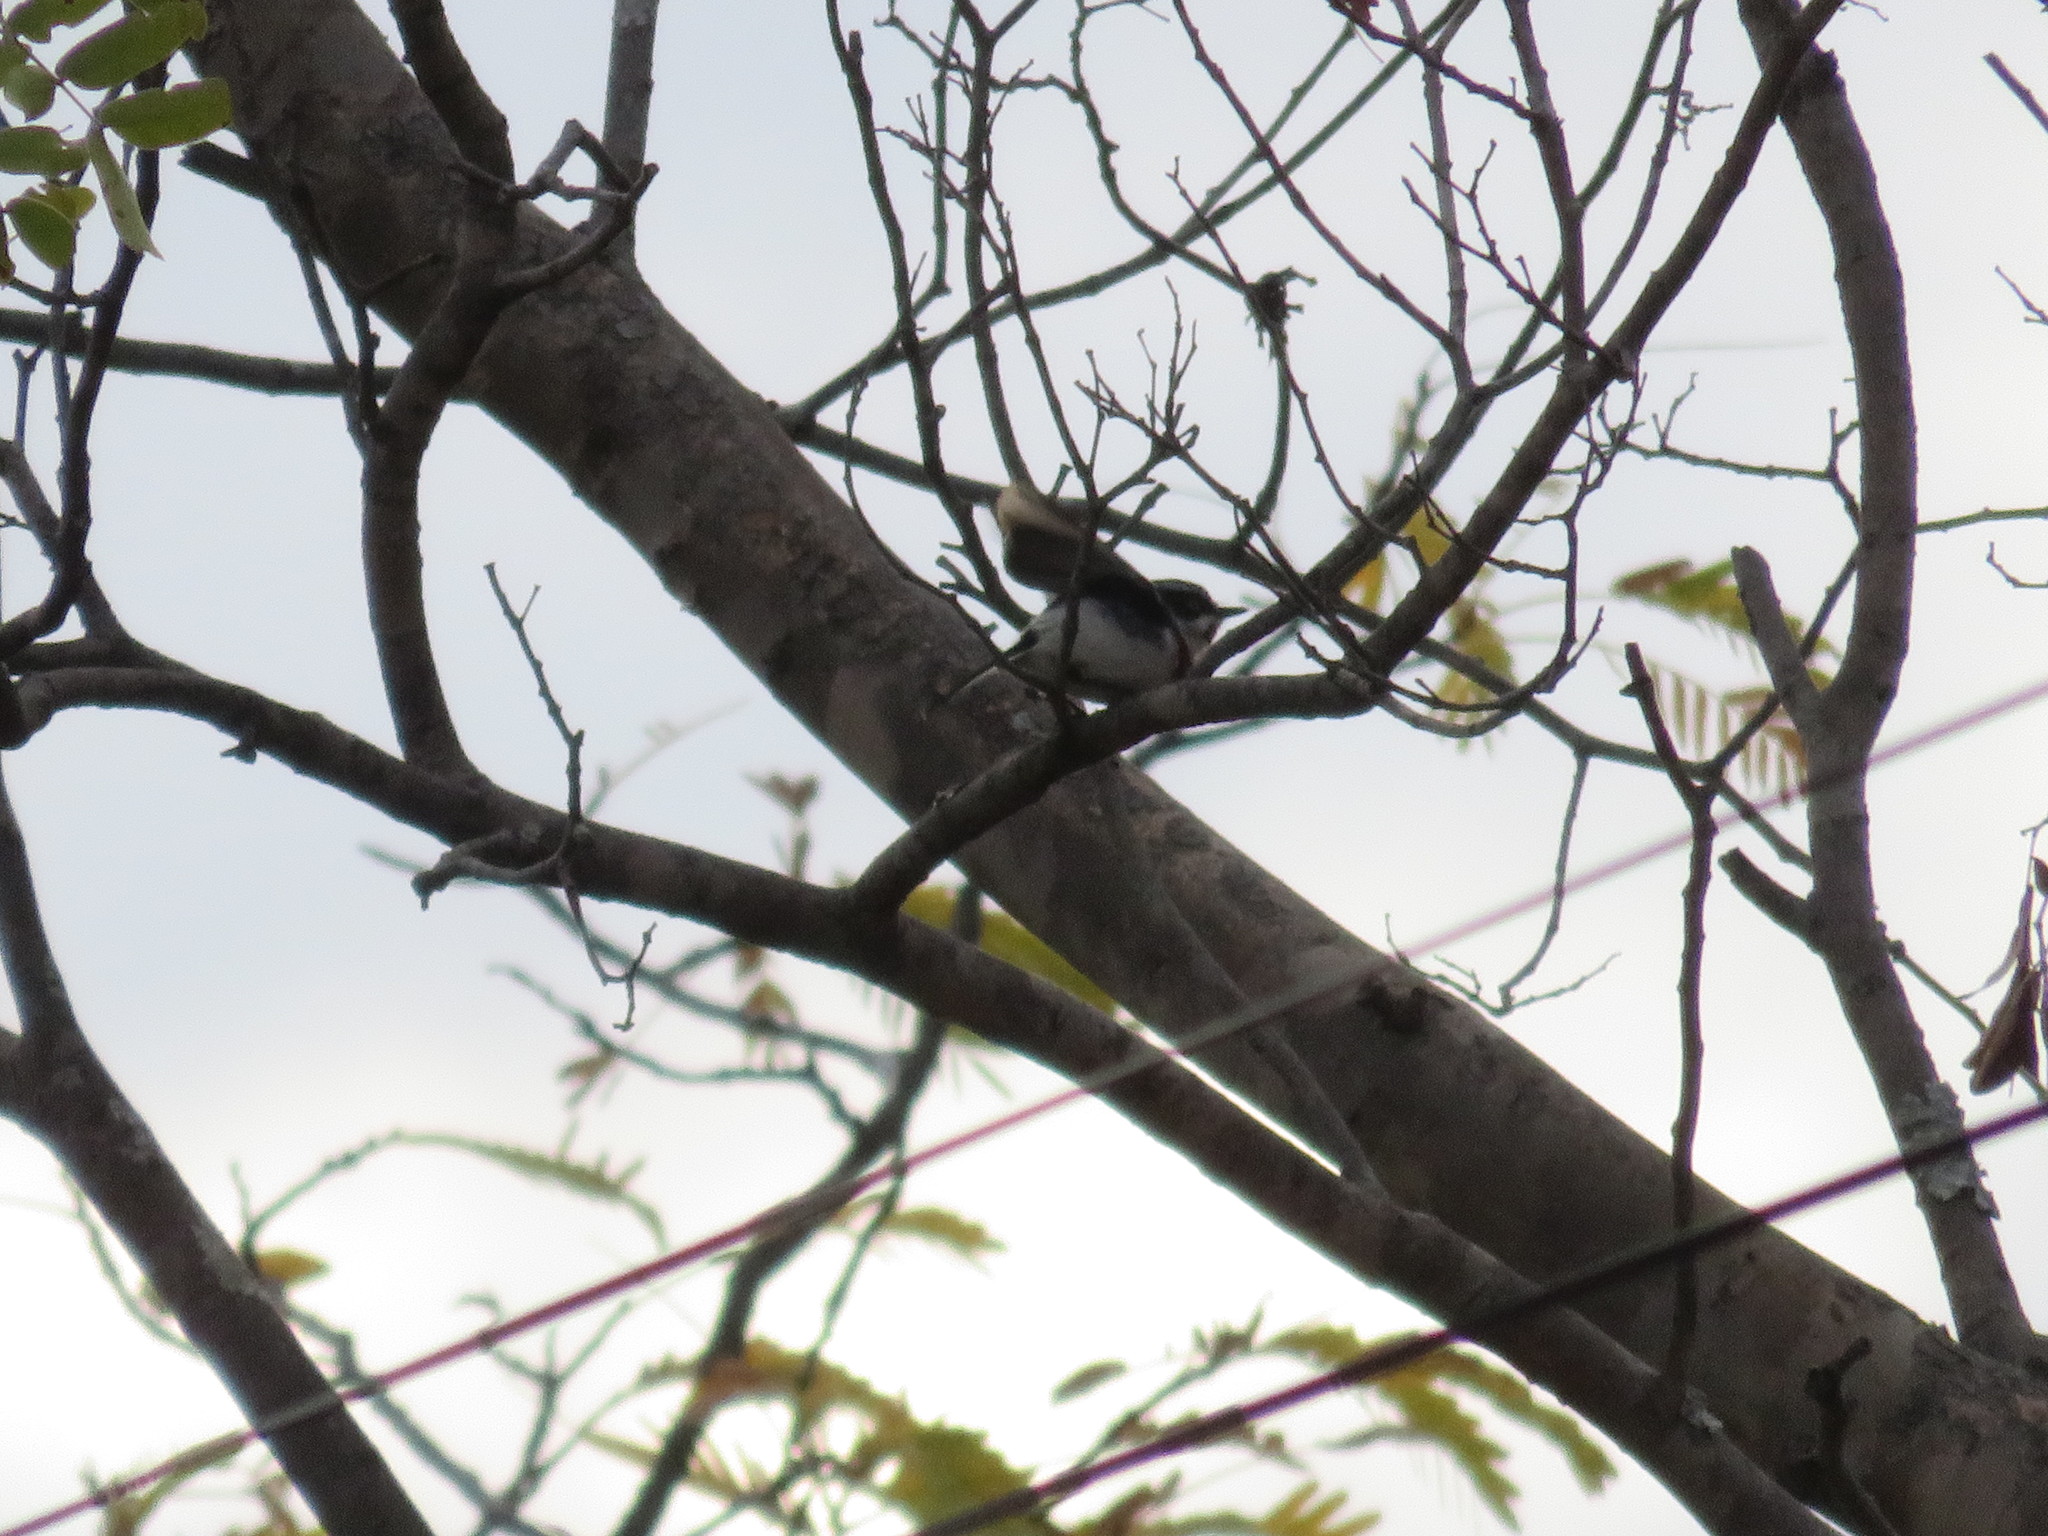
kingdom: Animalia
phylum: Chordata
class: Aves
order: Passeriformes
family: Platysteiridae
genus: Batis
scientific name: Batis molitor
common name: Chinspot batis
